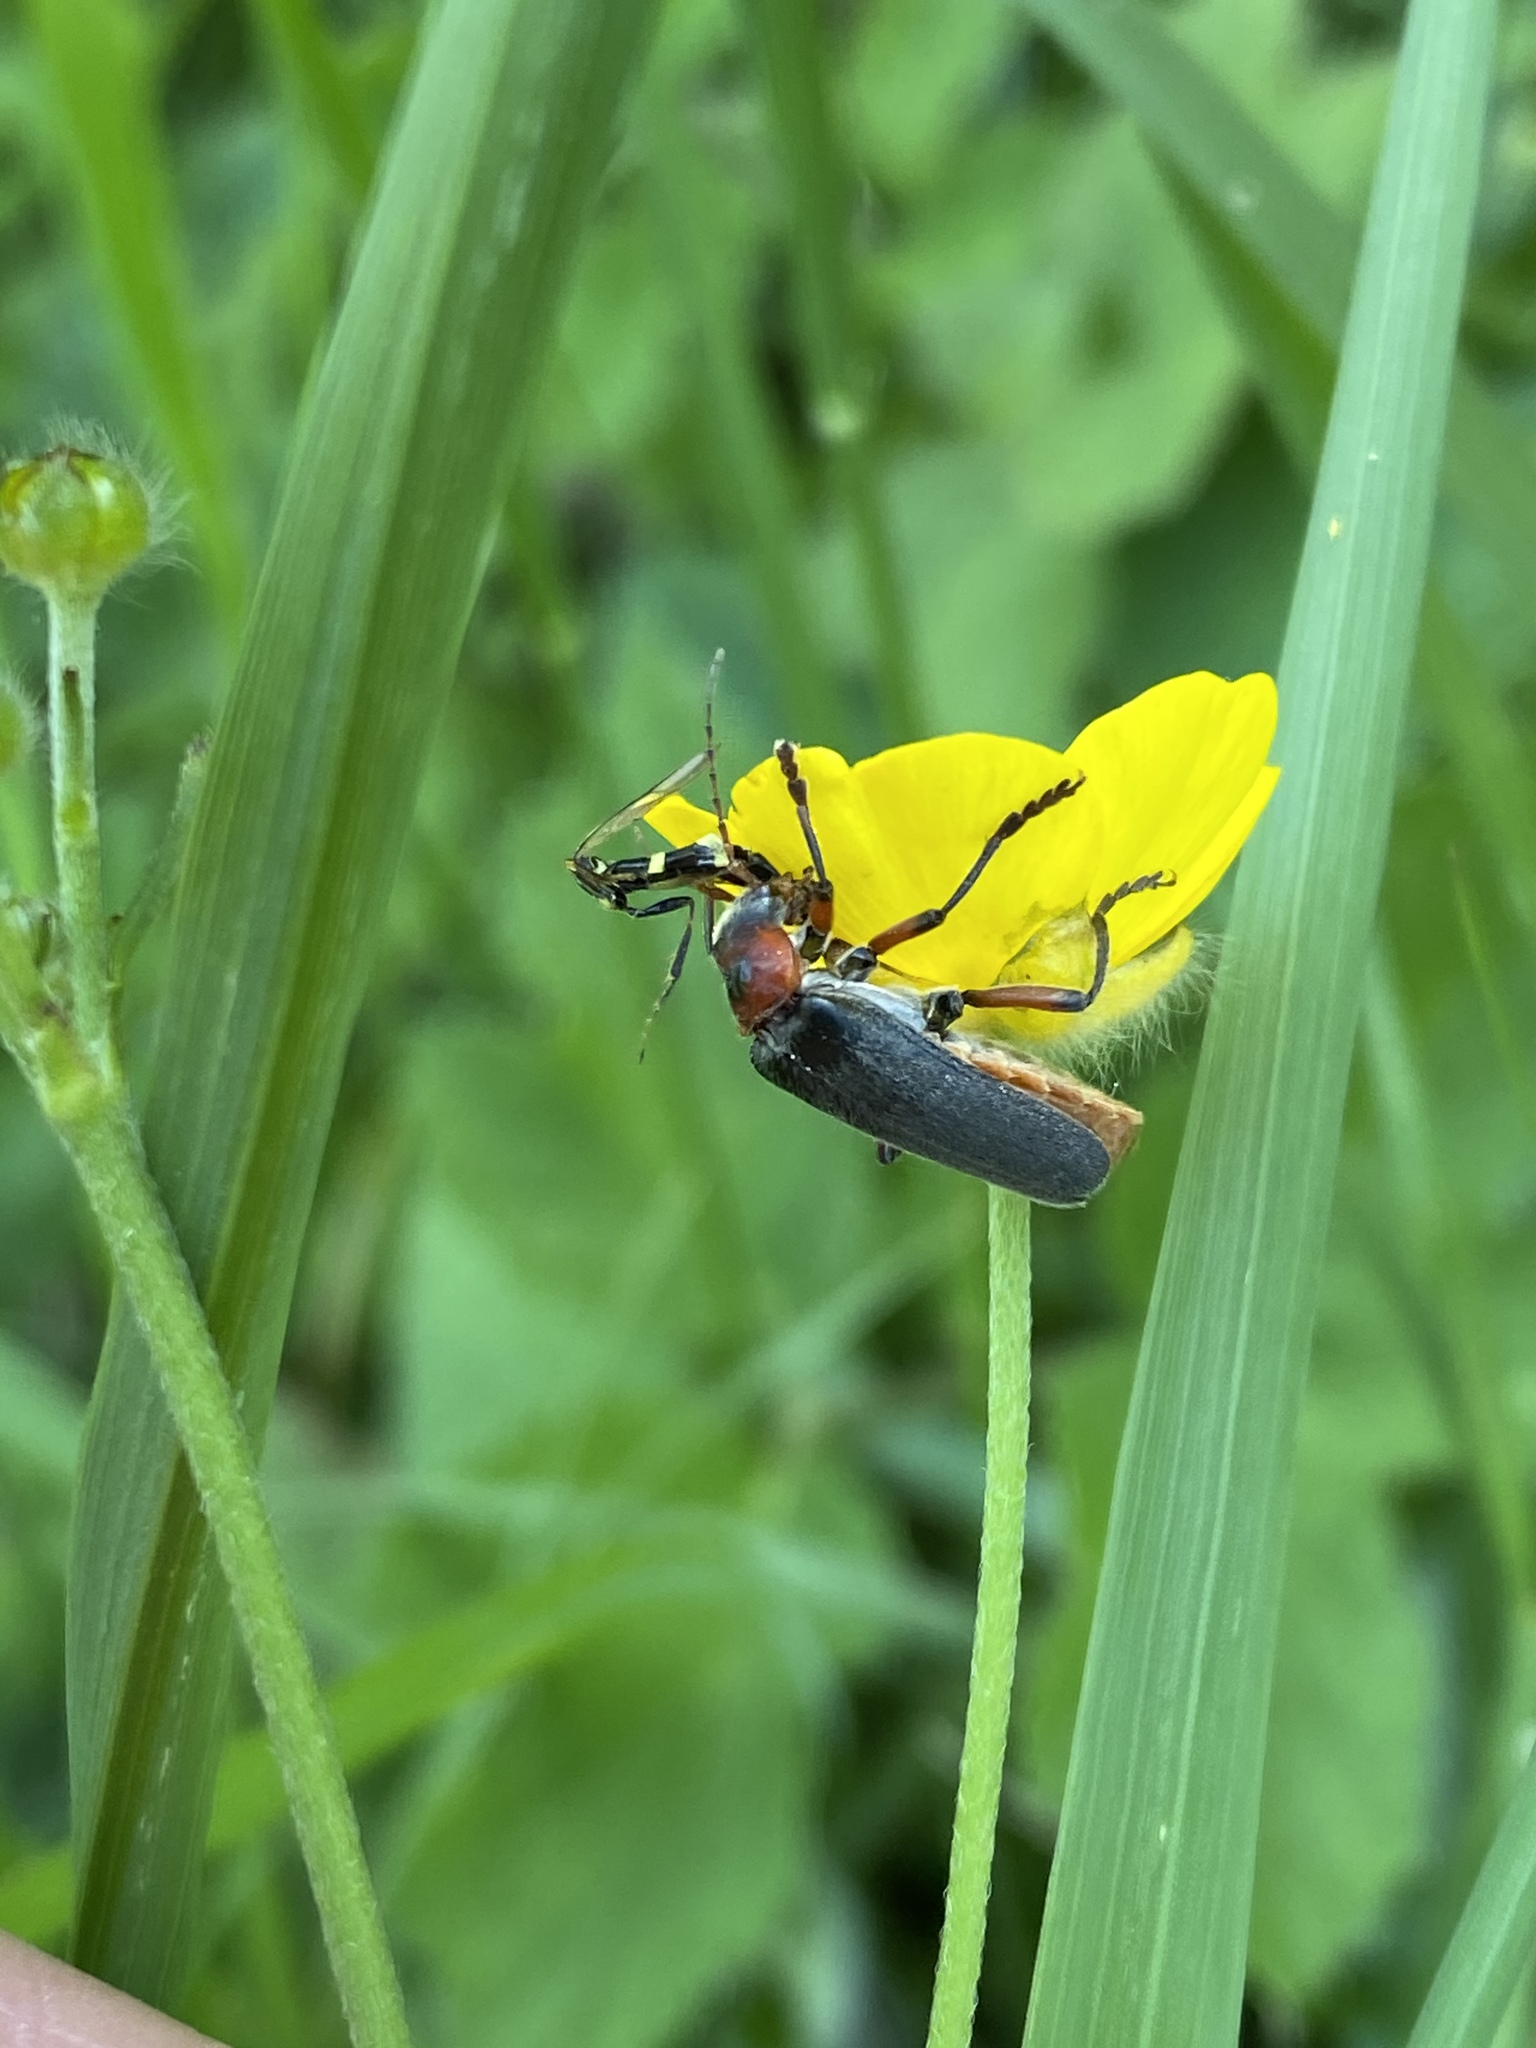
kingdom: Animalia
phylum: Arthropoda
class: Insecta
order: Coleoptera
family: Cantharidae
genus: Cantharis
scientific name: Cantharis rustica
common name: Soldier beetle
